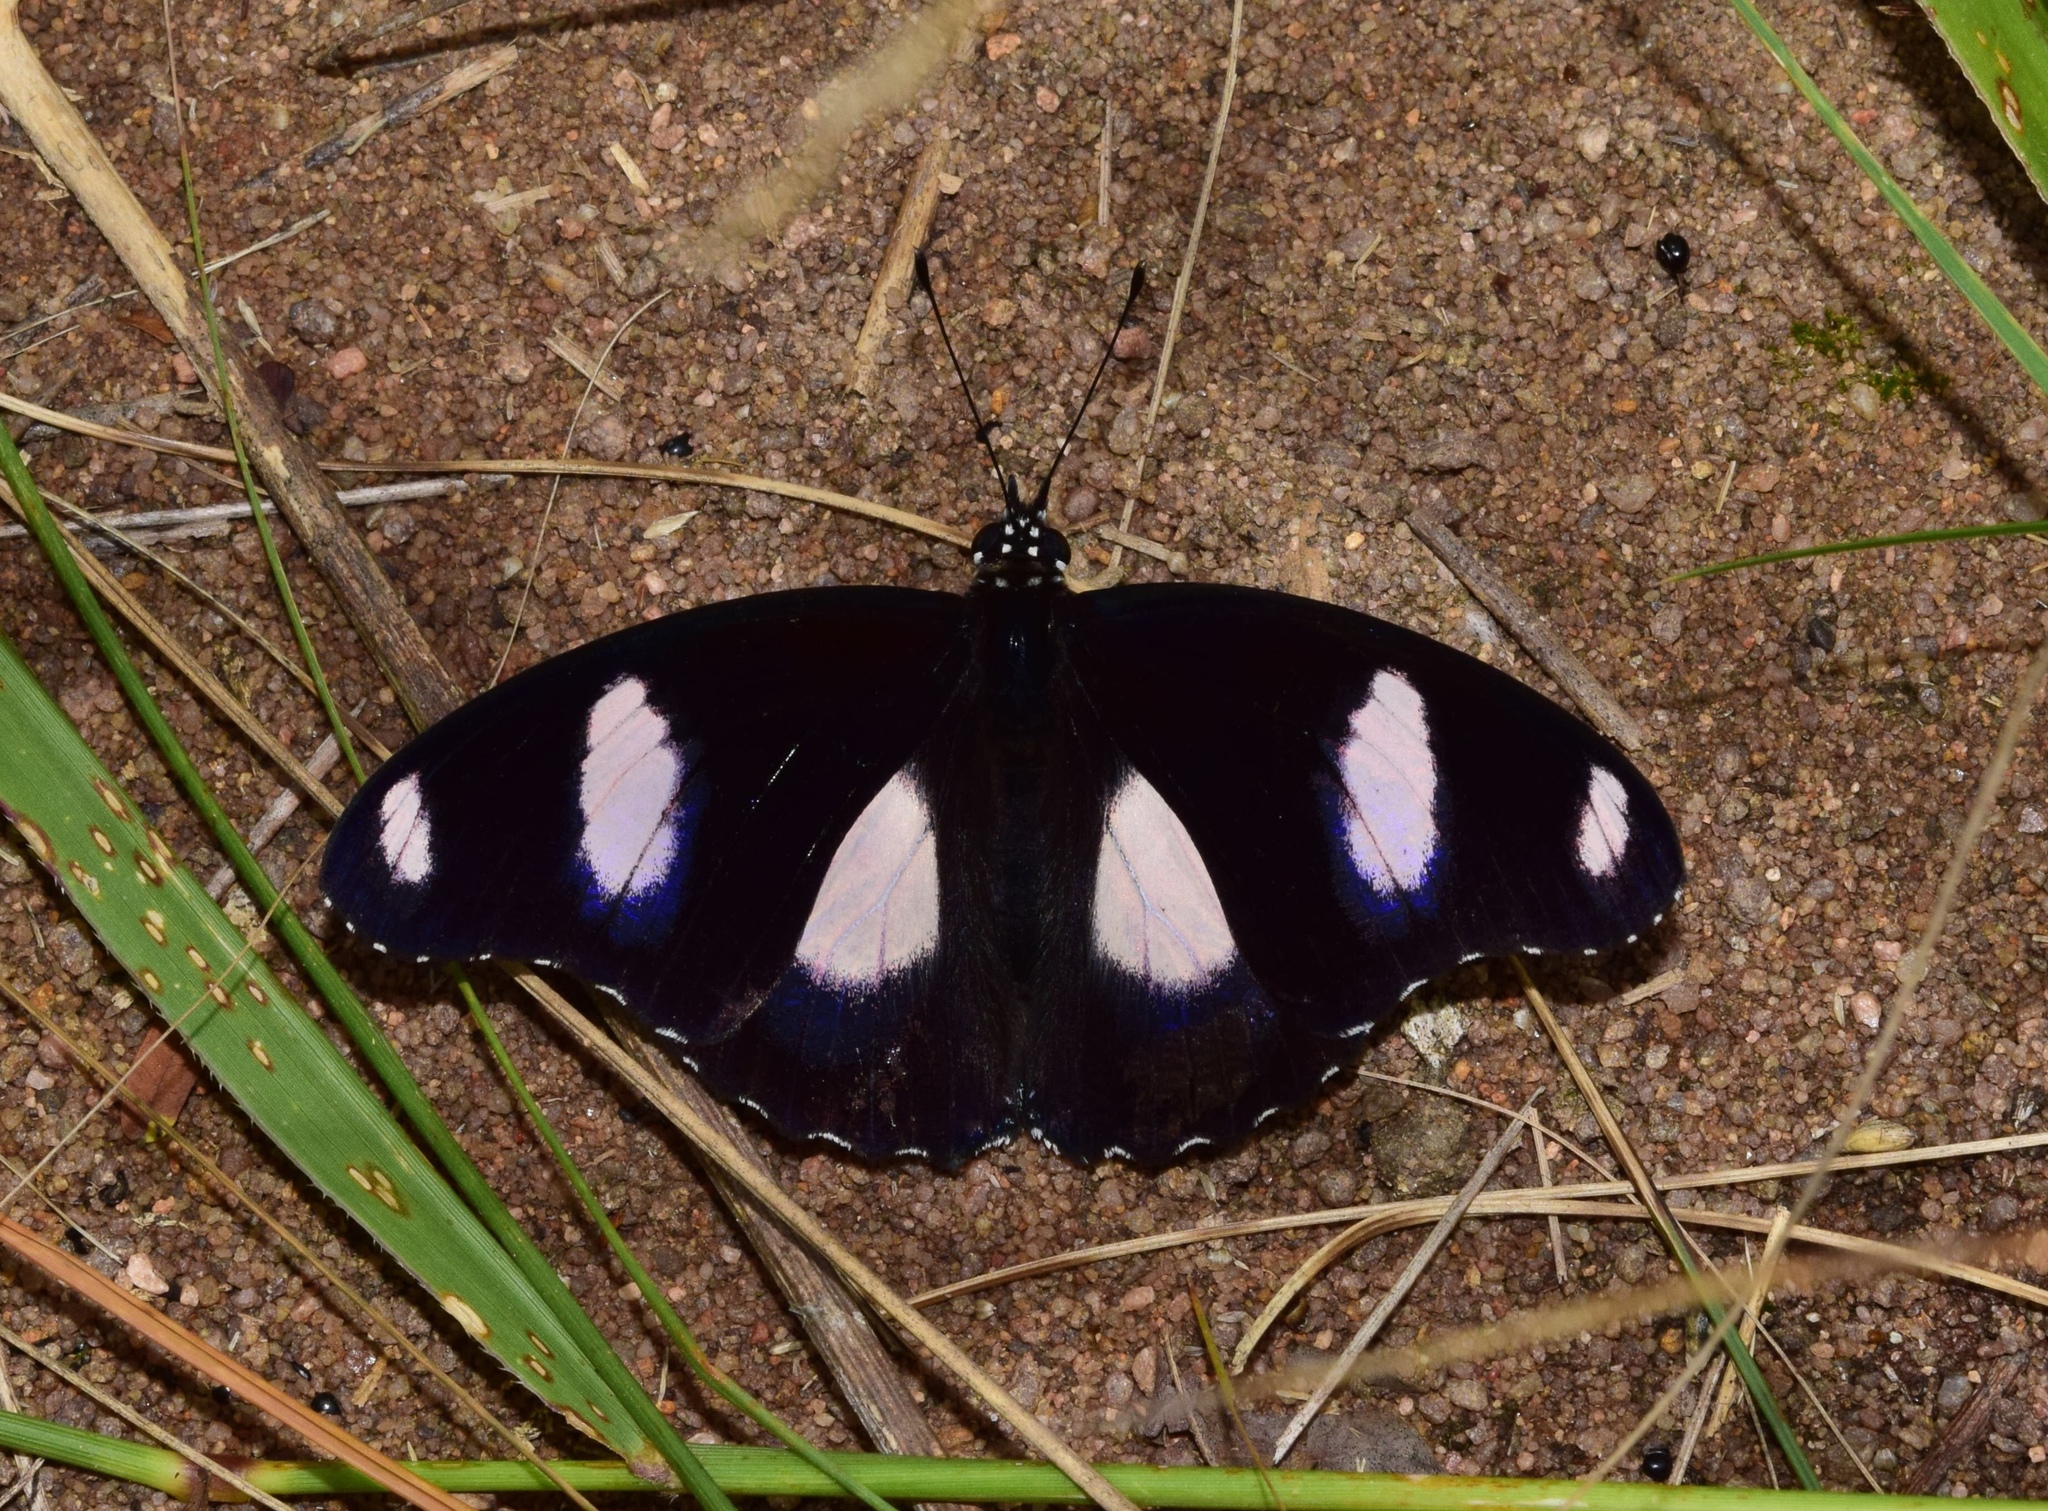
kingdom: Animalia
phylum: Arthropoda
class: Insecta
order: Lepidoptera
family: Nymphalidae
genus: Hypolimnas
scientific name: Hypolimnas misippus
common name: False plain tiger
